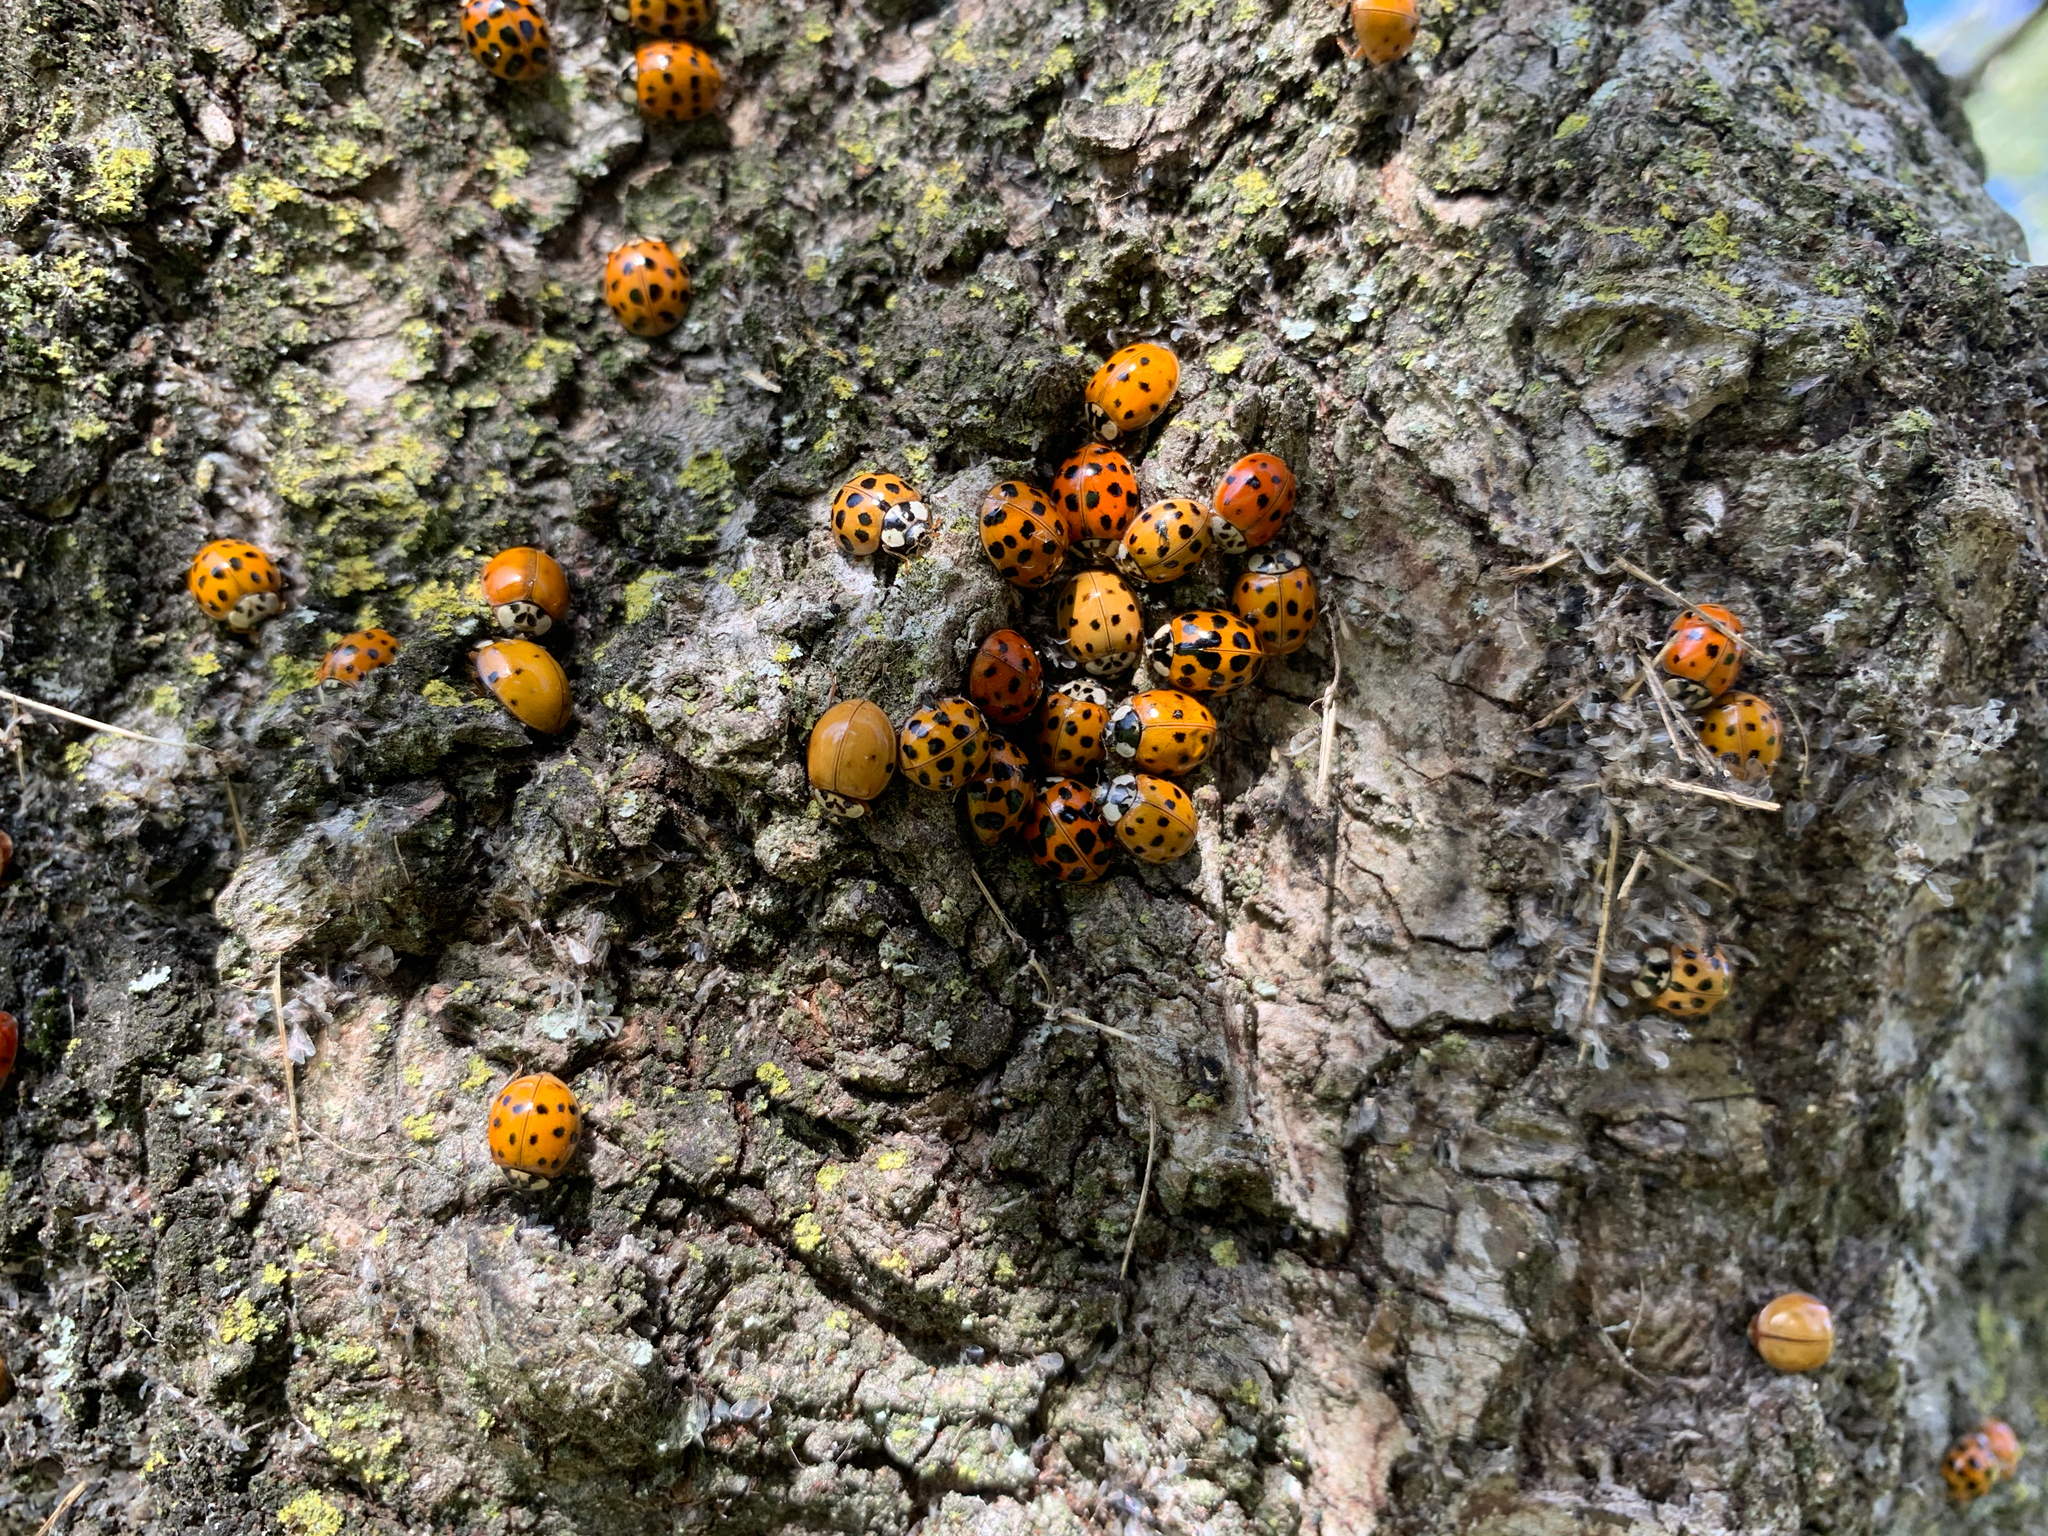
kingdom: Animalia
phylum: Arthropoda
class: Insecta
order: Coleoptera
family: Coccinellidae
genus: Harmonia
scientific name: Harmonia axyridis
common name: Harlequin ladybird
